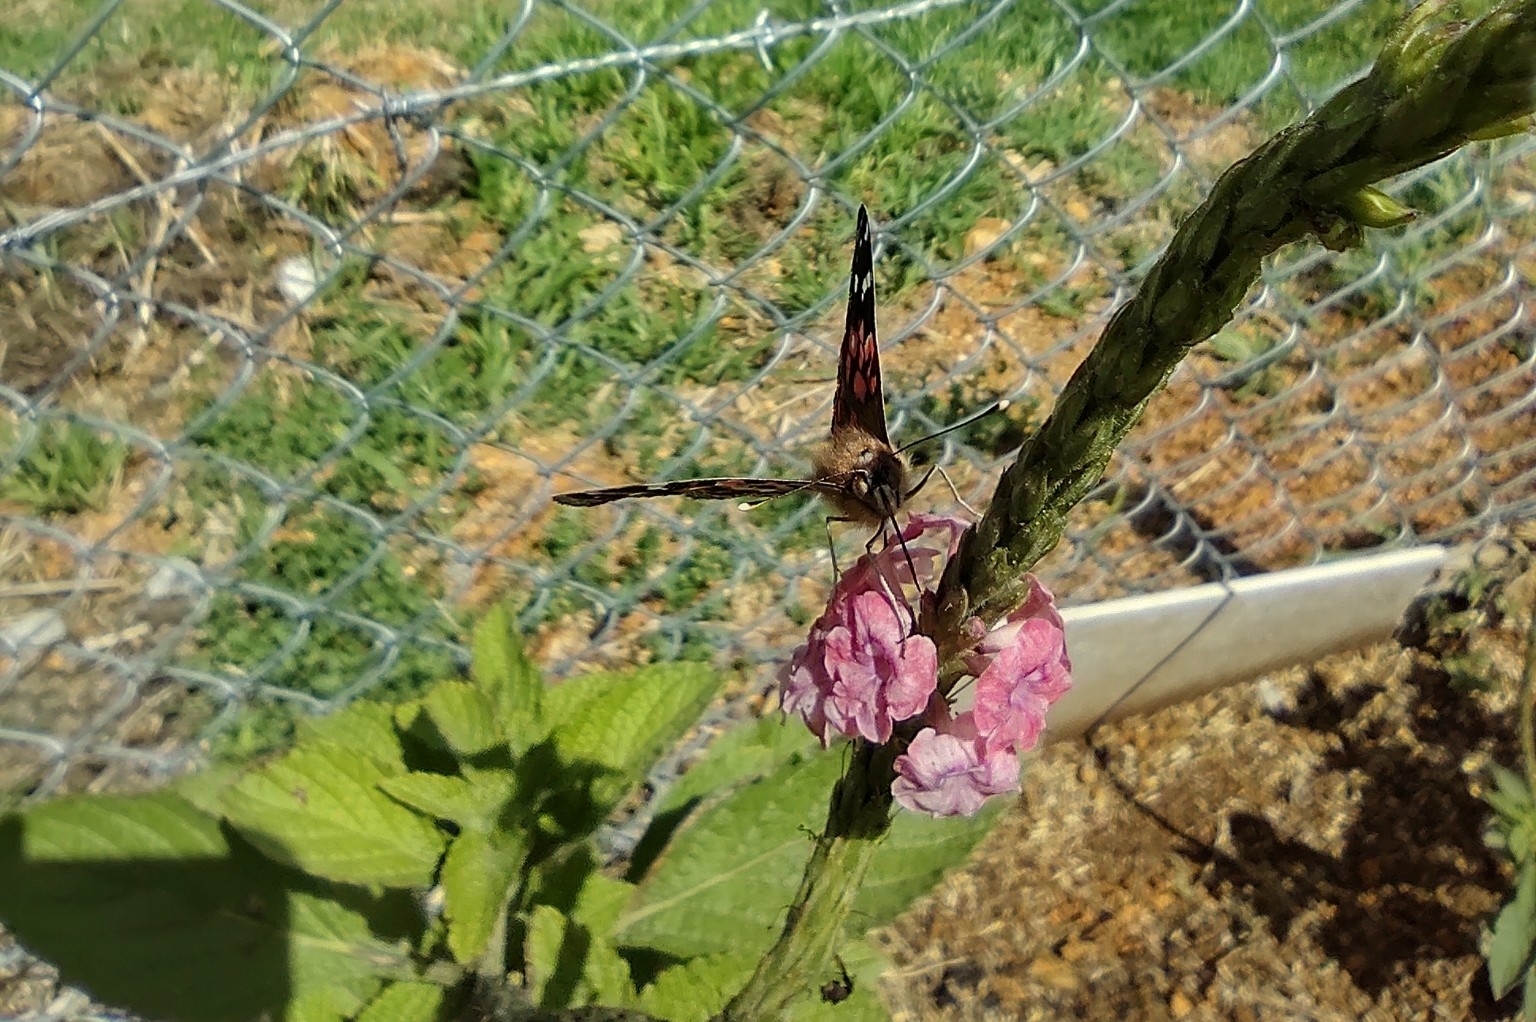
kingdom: Animalia
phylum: Arthropoda
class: Insecta
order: Lepidoptera
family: Nymphalidae
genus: Vanessa
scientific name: Vanessa braziliensis
